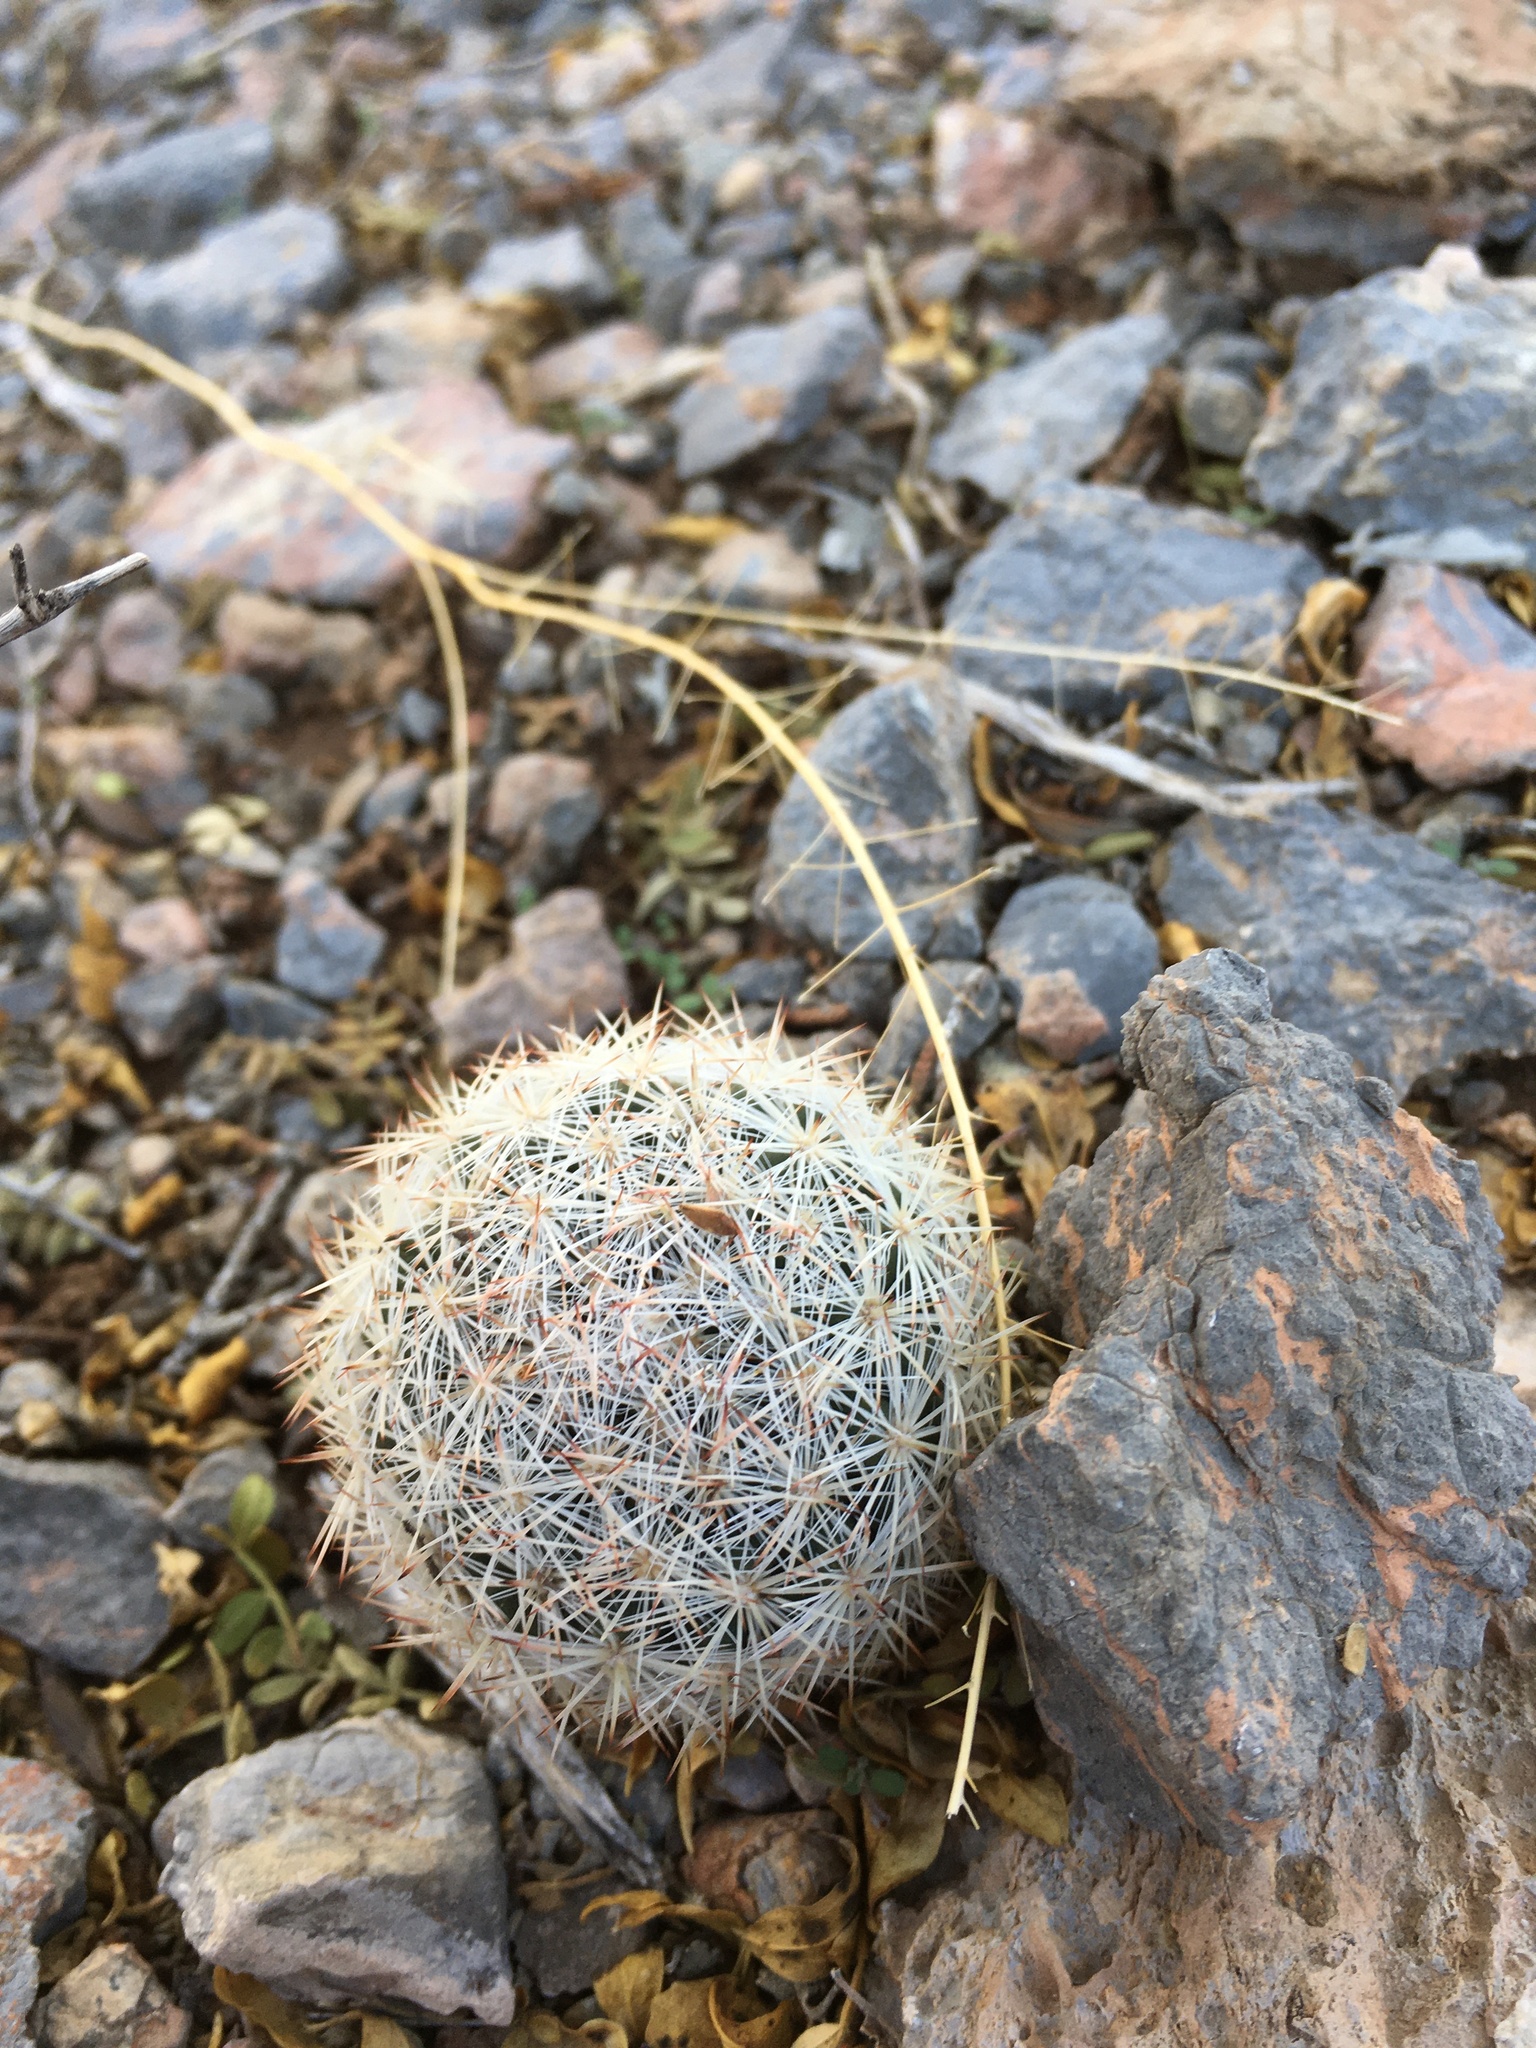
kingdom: Plantae
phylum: Tracheophyta
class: Magnoliopsida
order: Caryophyllales
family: Cactaceae
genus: Pelecyphora
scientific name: Pelecyphora sneedii
